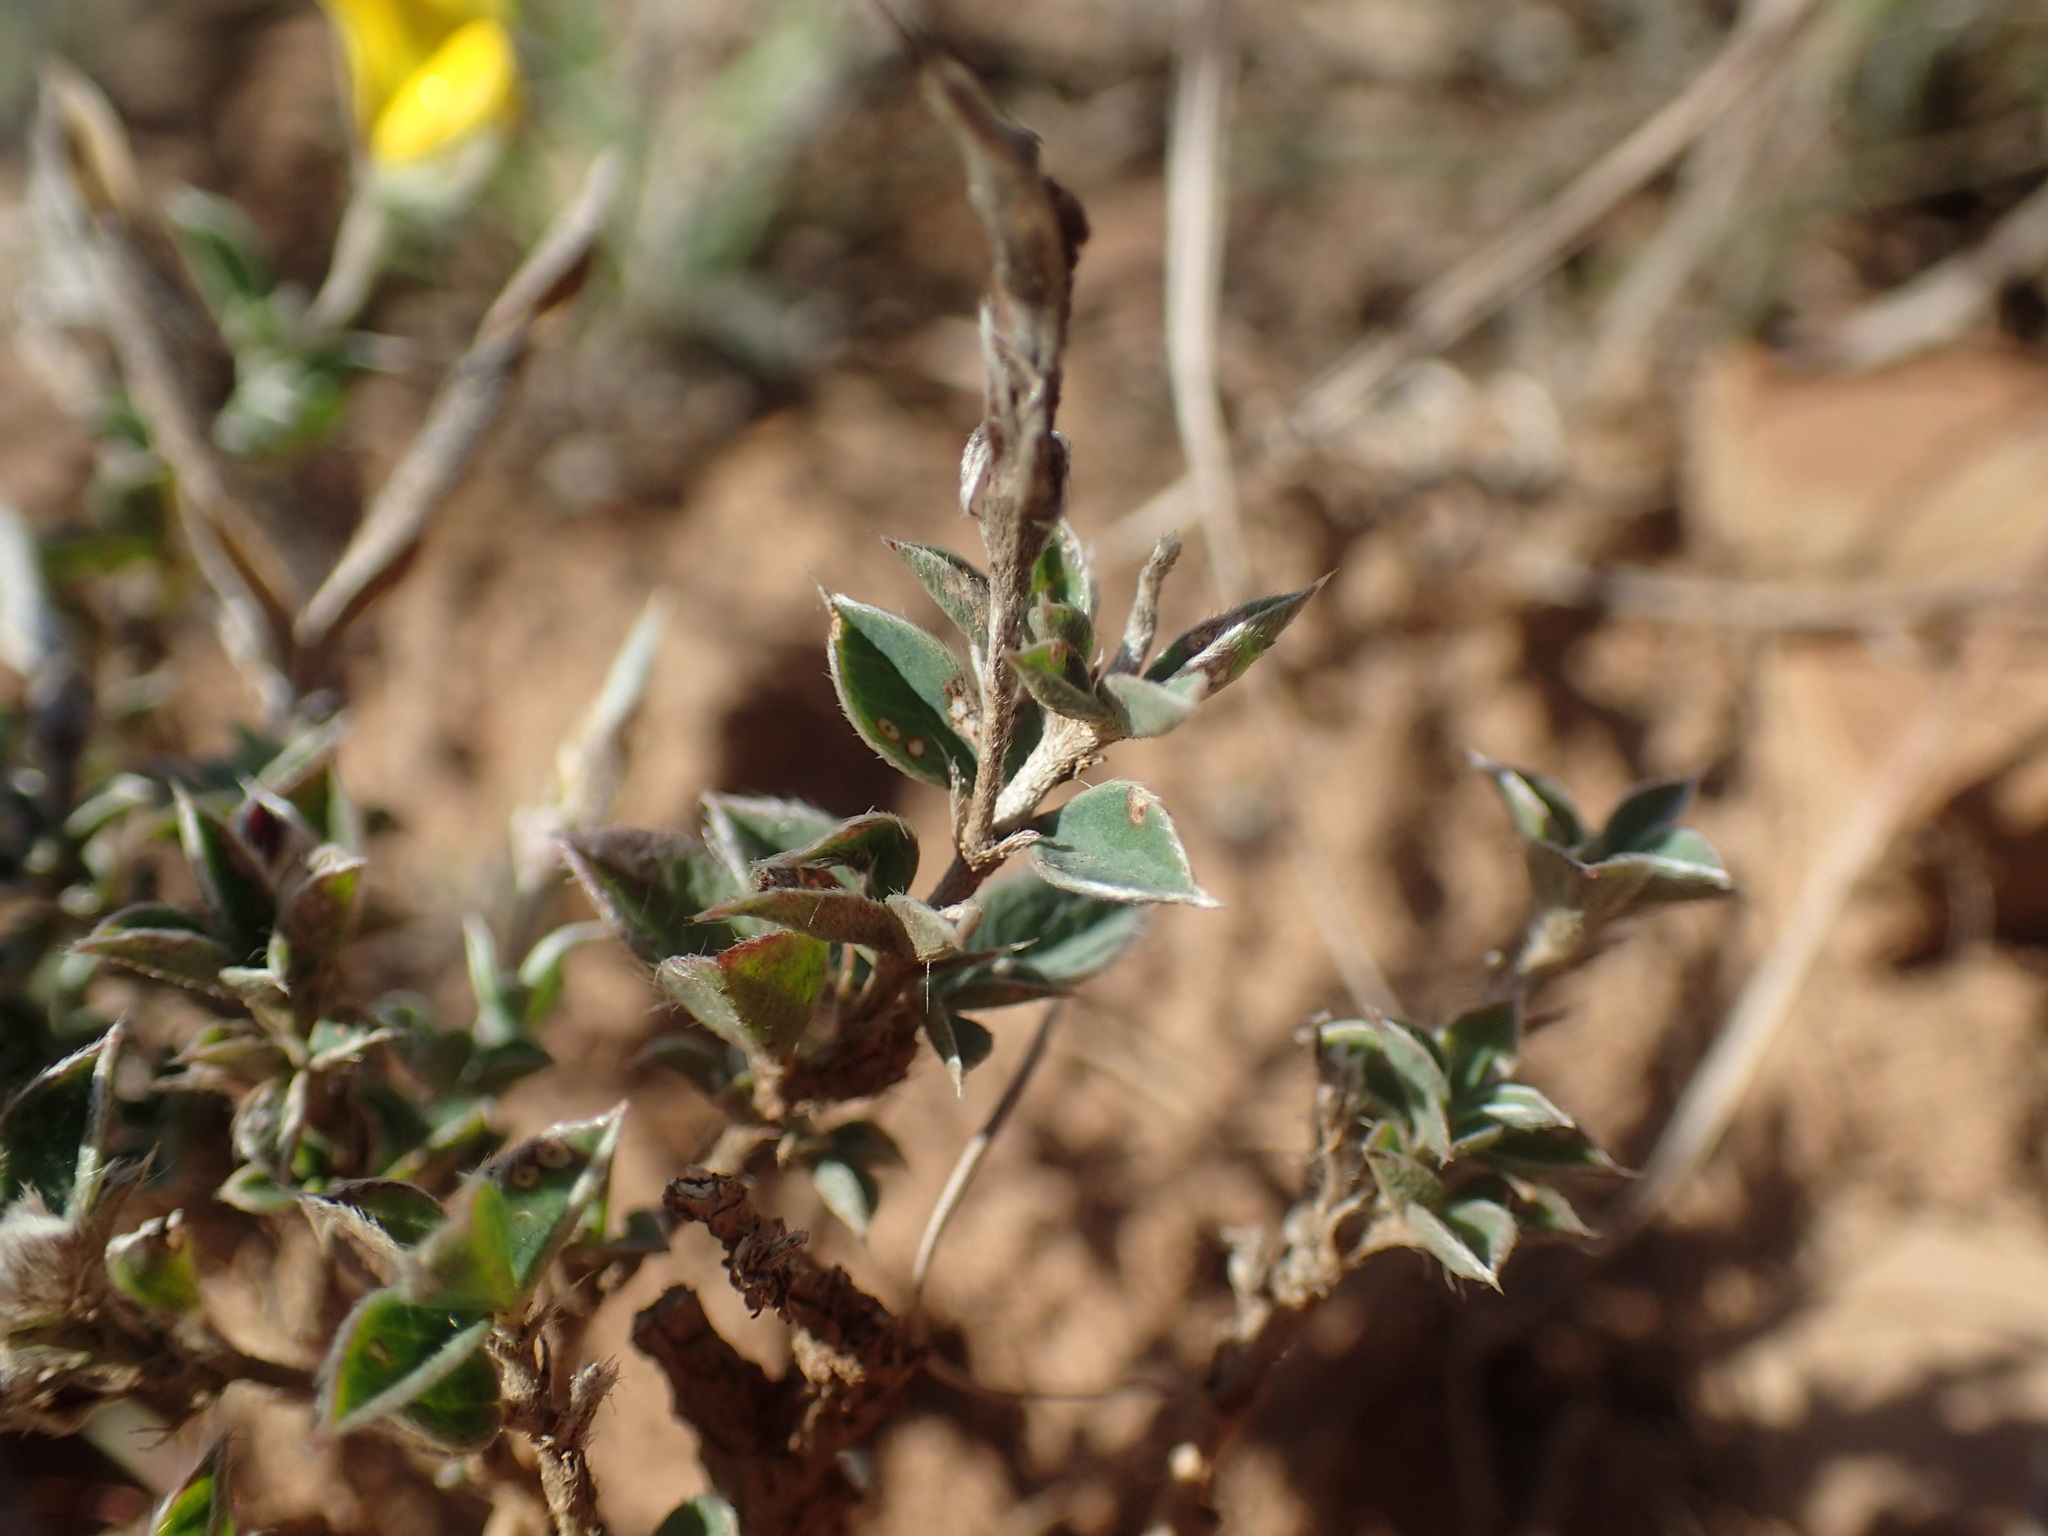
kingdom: Plantae
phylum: Tracheophyta
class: Magnoliopsida
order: Fabales
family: Fabaceae
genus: Argyrolobium
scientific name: Argyrolobium argenteum
